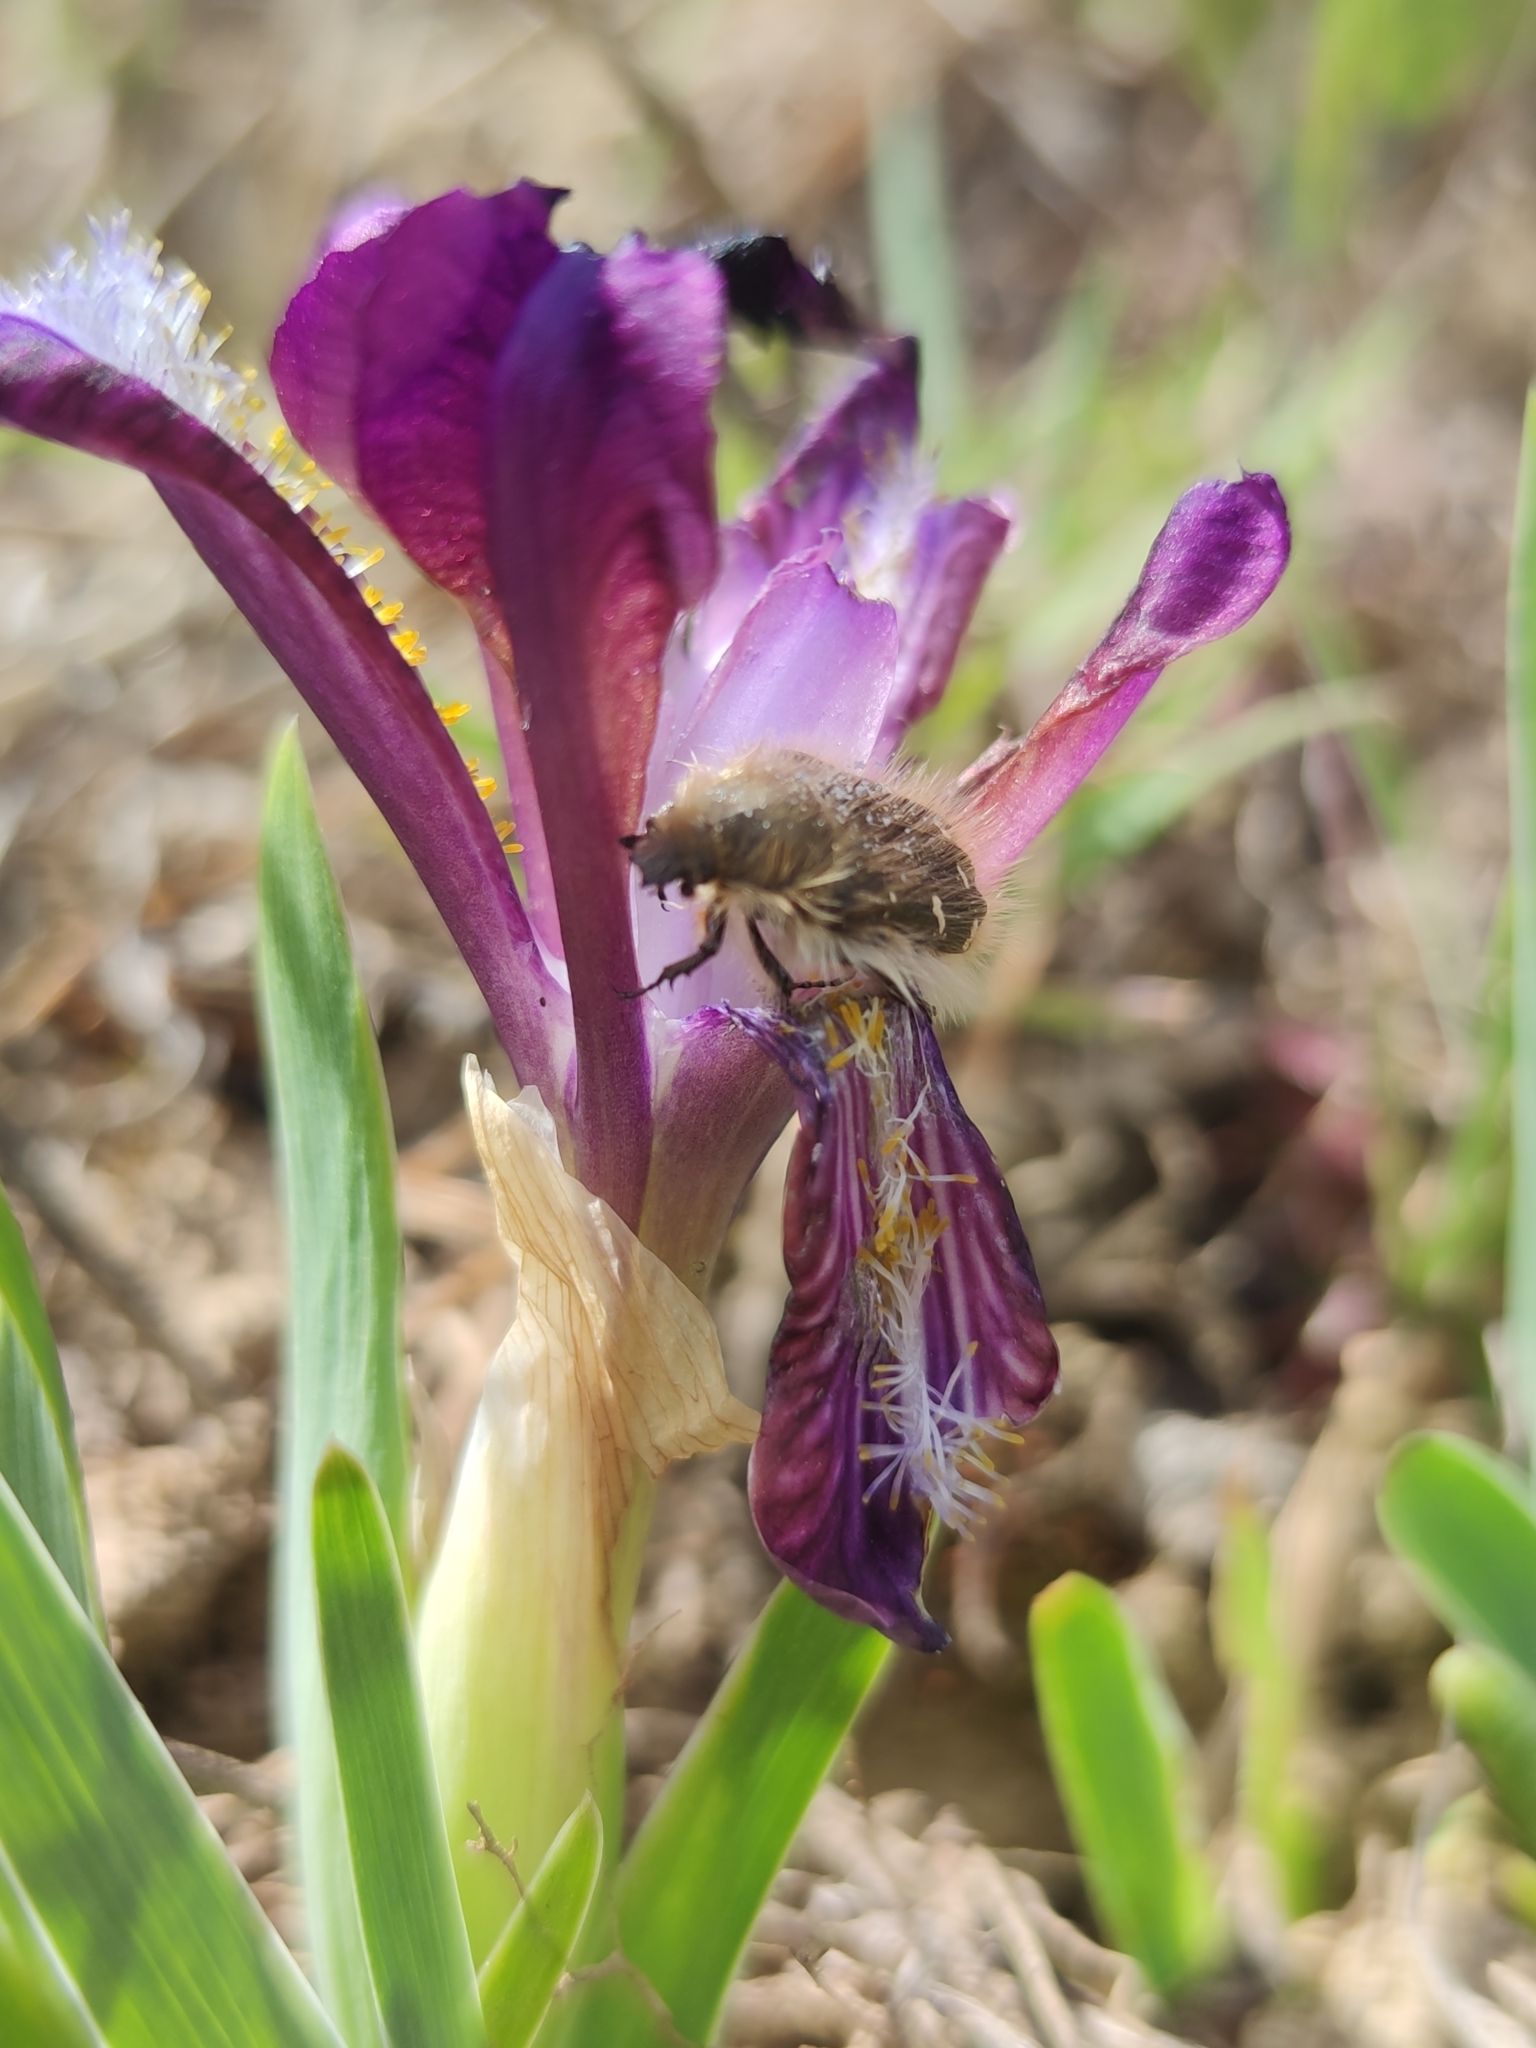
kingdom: Animalia
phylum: Arthropoda
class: Insecta
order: Coleoptera
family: Scarabaeidae
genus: Tropinota
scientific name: Tropinota hirta
